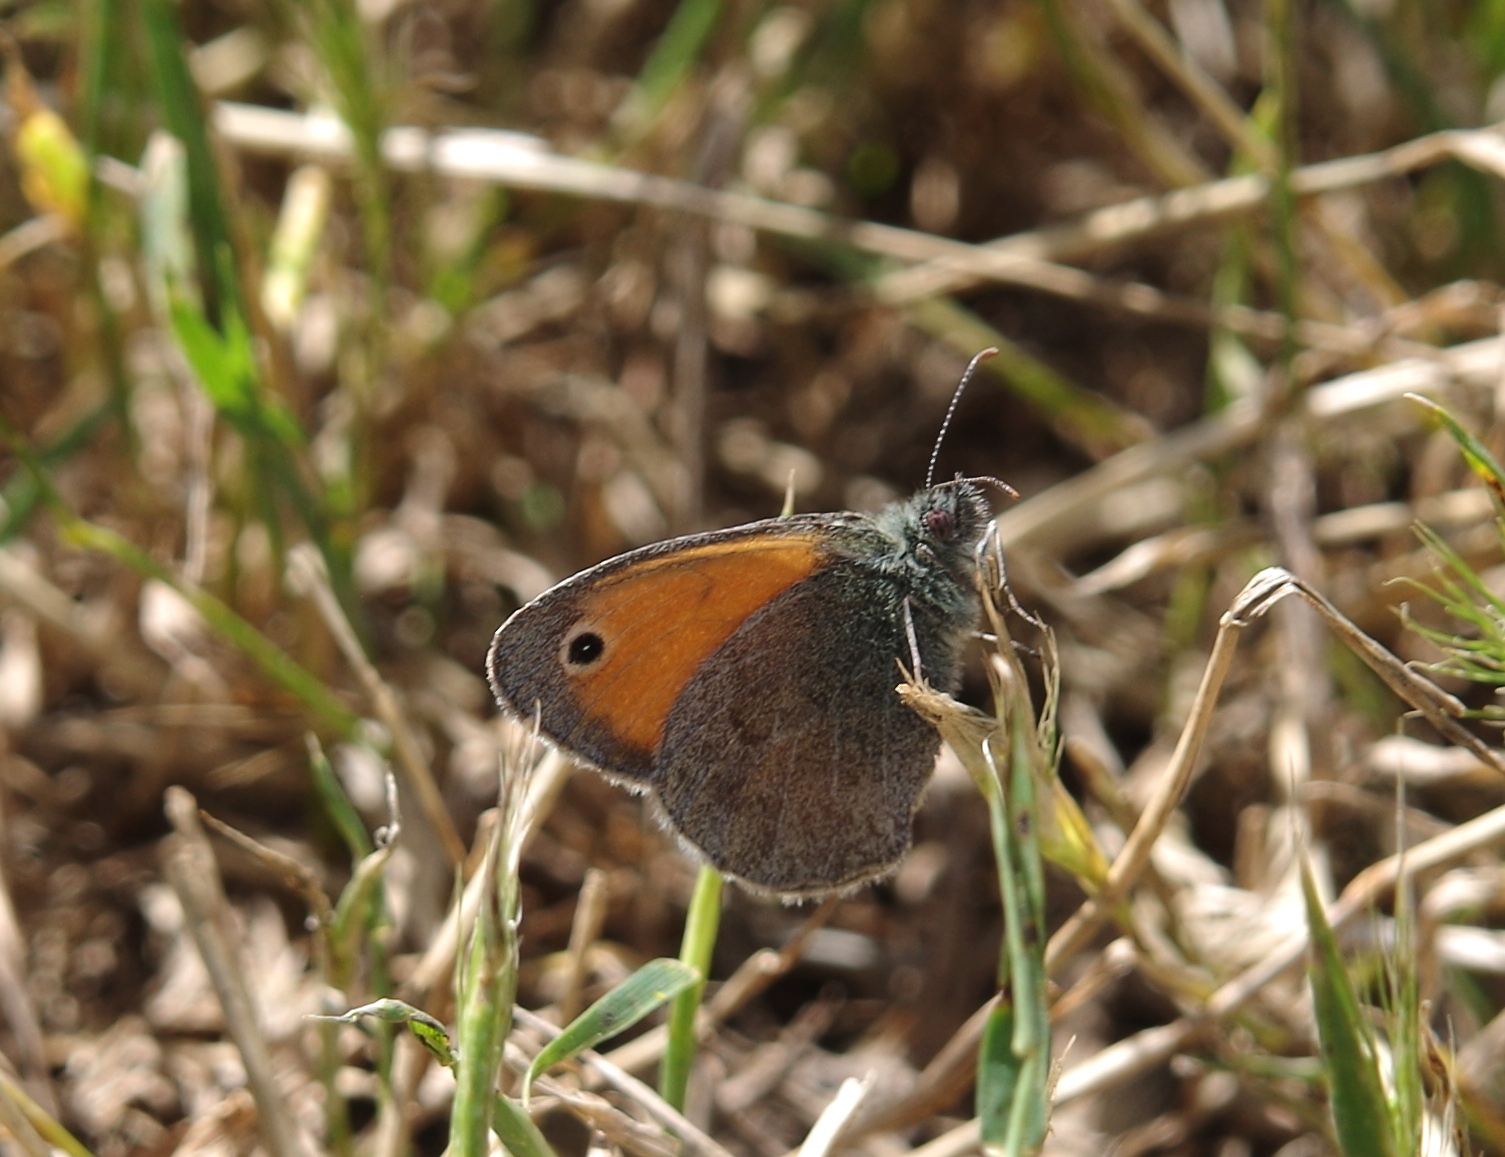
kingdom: Animalia
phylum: Arthropoda
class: Insecta
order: Lepidoptera
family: Nymphalidae
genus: Coenonympha
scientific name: Coenonympha pamphilus
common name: Small heath
